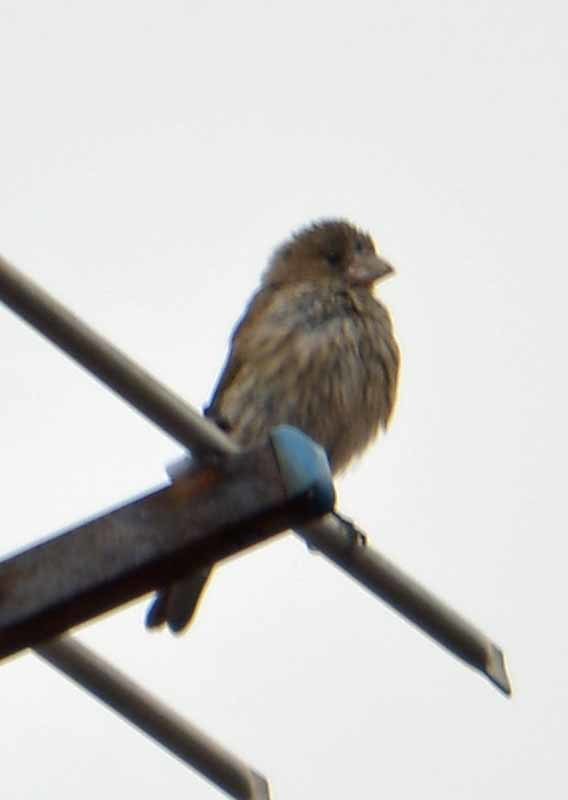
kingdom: Animalia
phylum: Chordata
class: Aves
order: Passeriformes
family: Fringillidae
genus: Haemorhous
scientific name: Haemorhous mexicanus
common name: House finch
